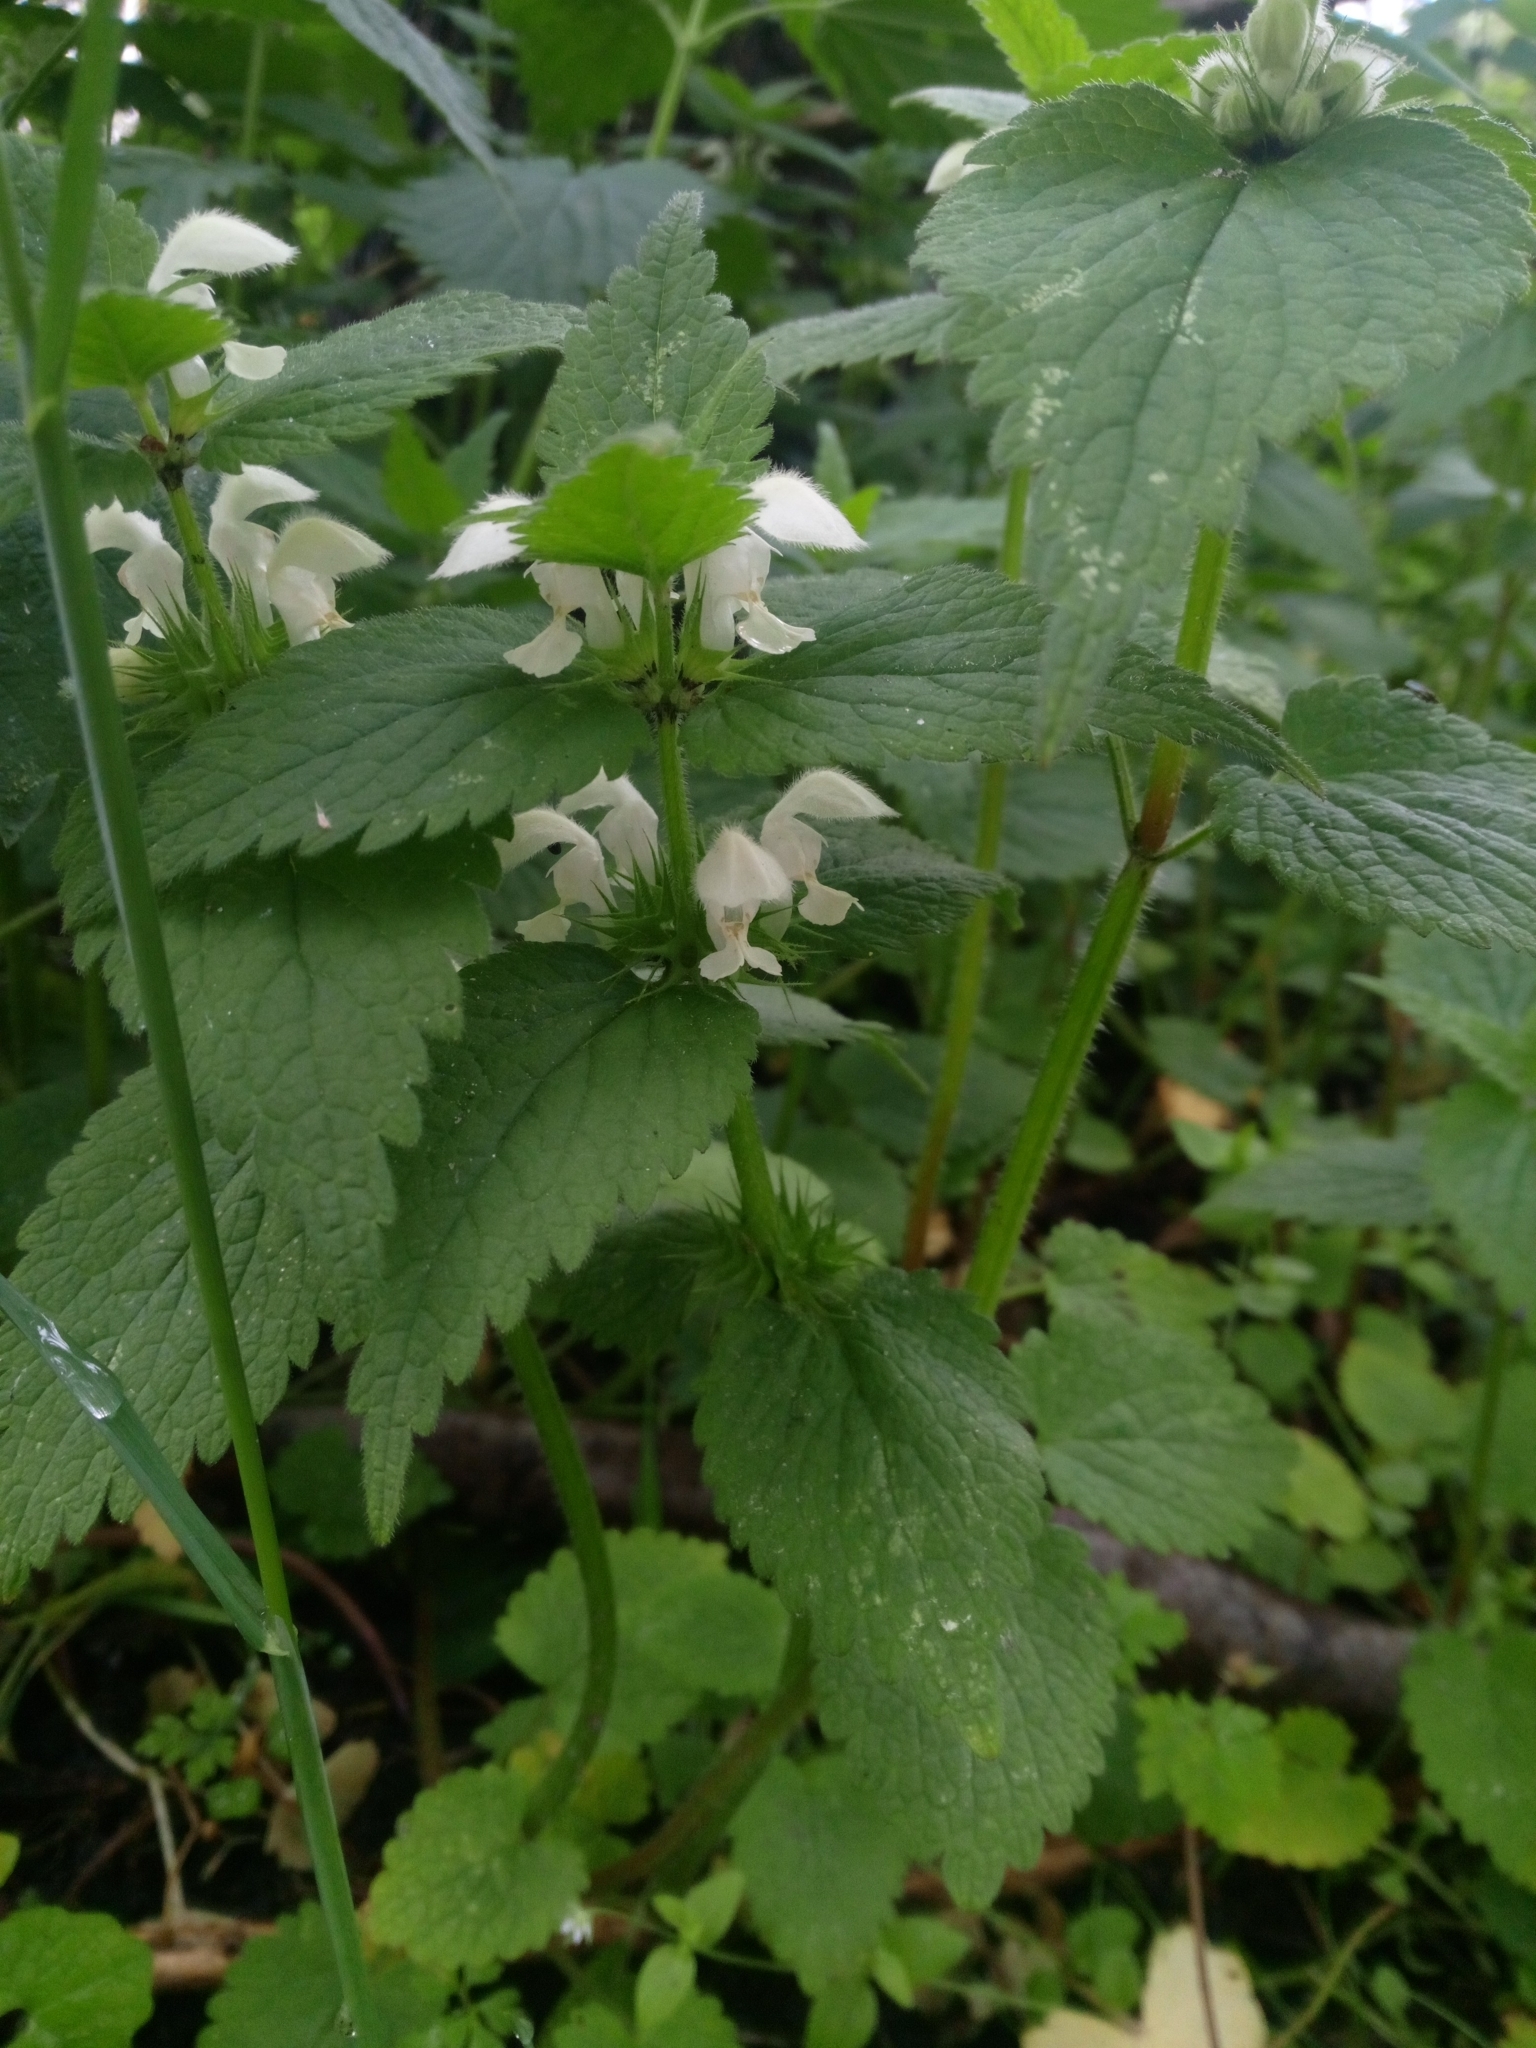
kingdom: Plantae
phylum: Tracheophyta
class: Magnoliopsida
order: Lamiales
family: Lamiaceae
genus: Lamium
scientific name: Lamium album
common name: White dead-nettle
